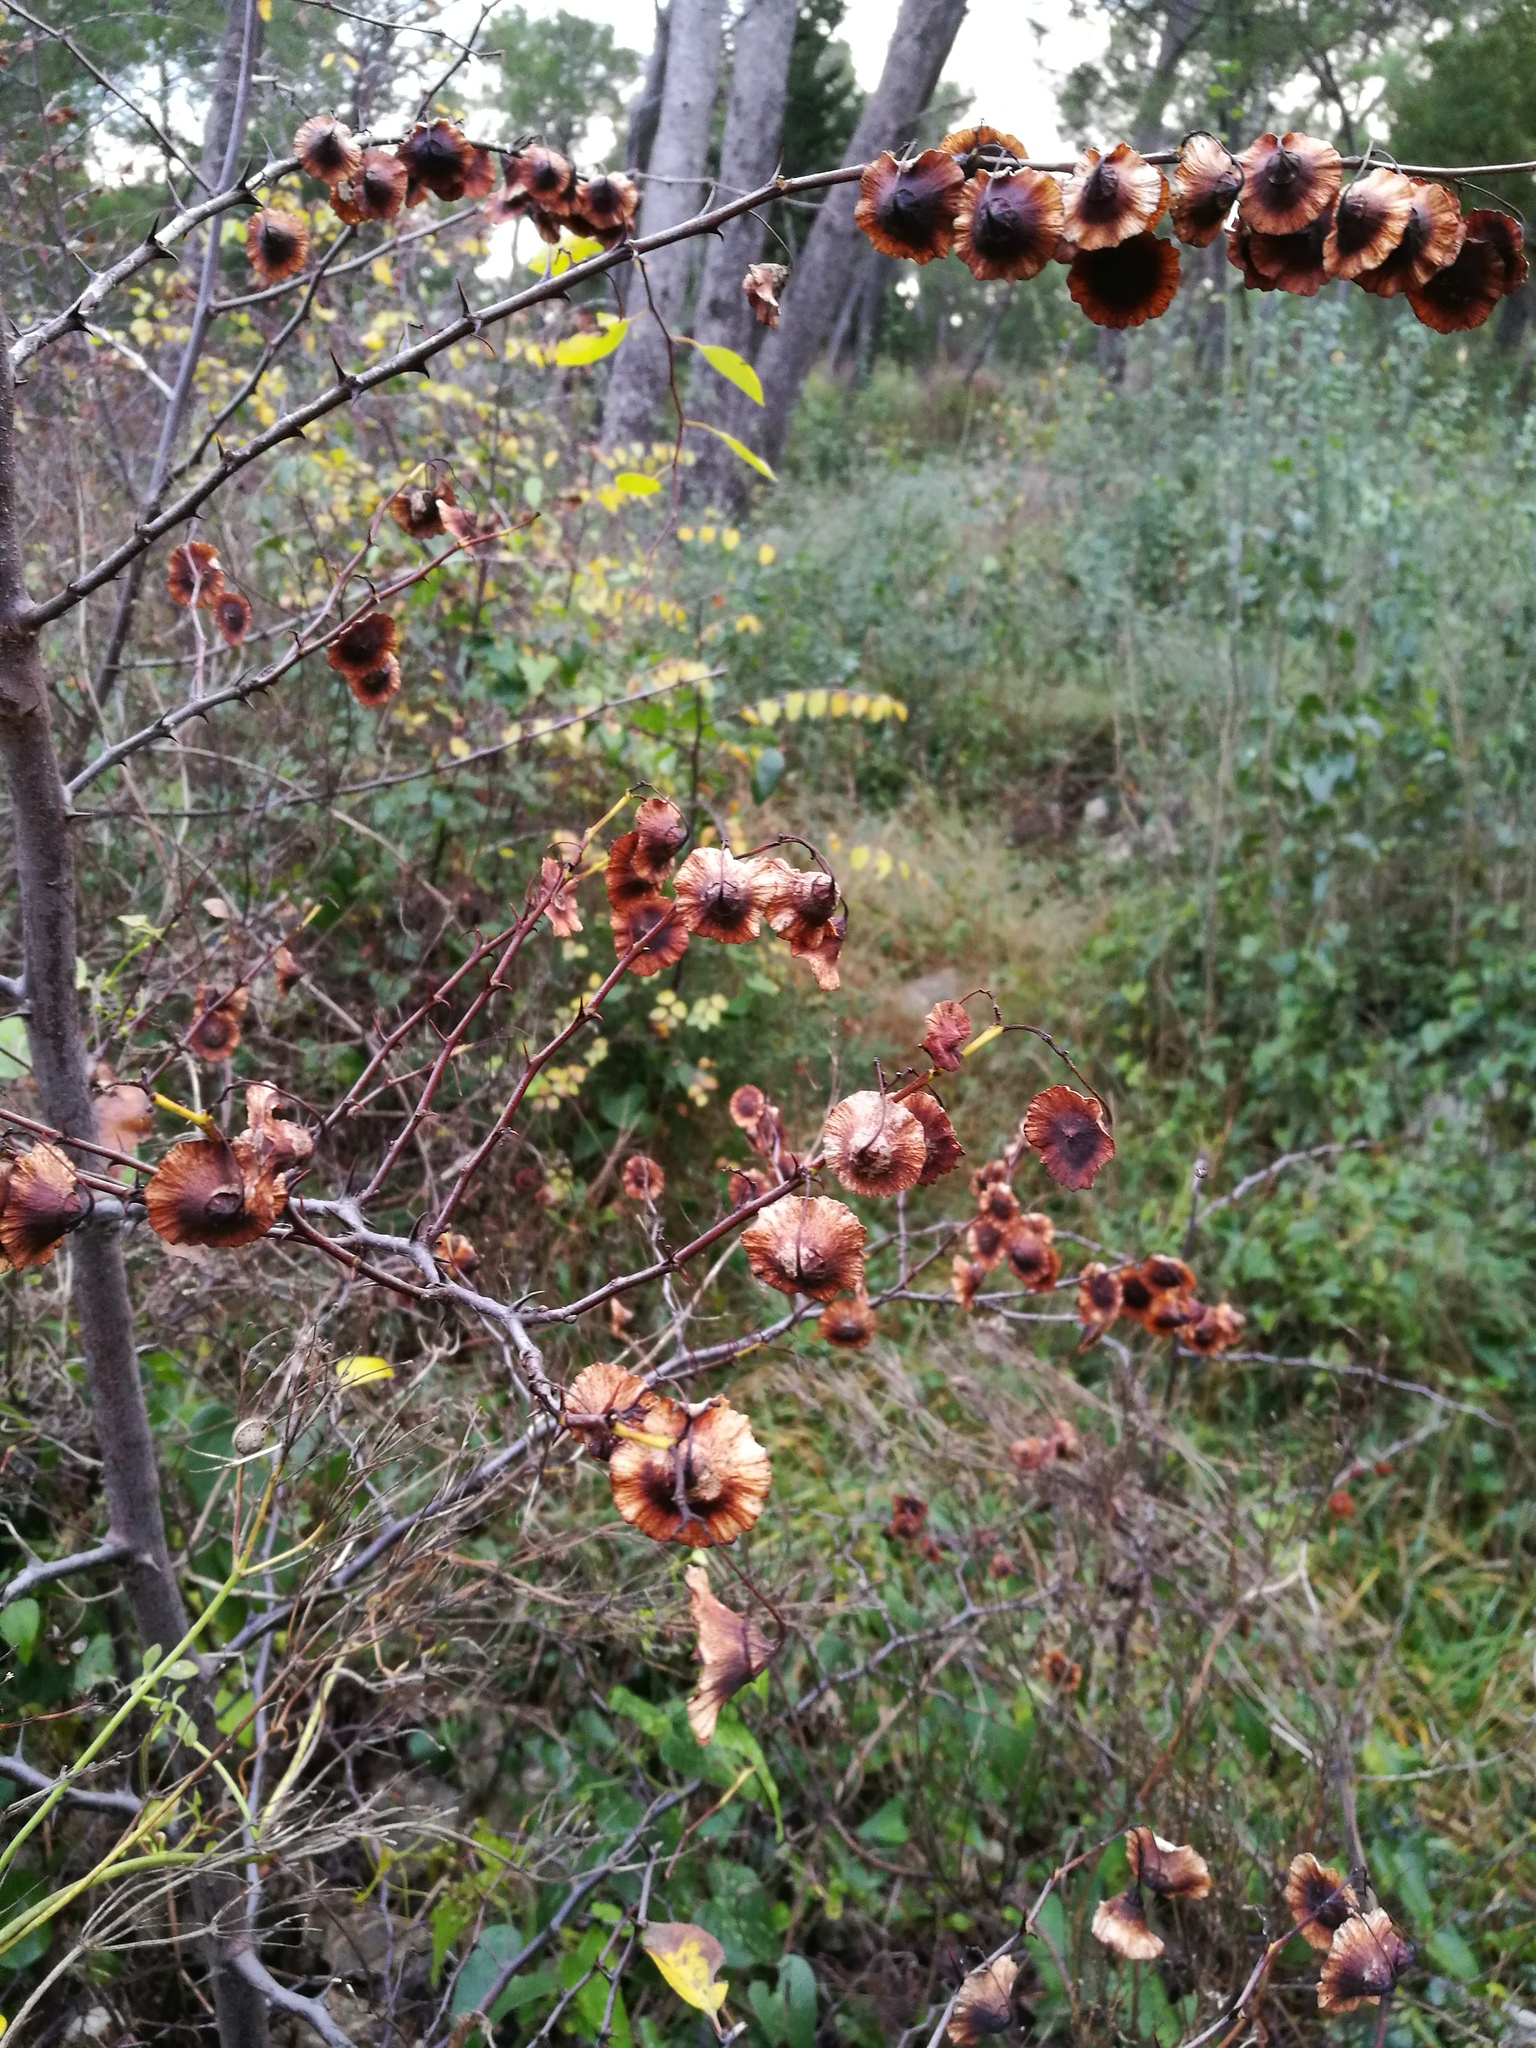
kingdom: Plantae
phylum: Tracheophyta
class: Magnoliopsida
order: Rosales
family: Rhamnaceae
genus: Paliurus
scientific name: Paliurus spina-christi
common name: Jeruselem thorn
